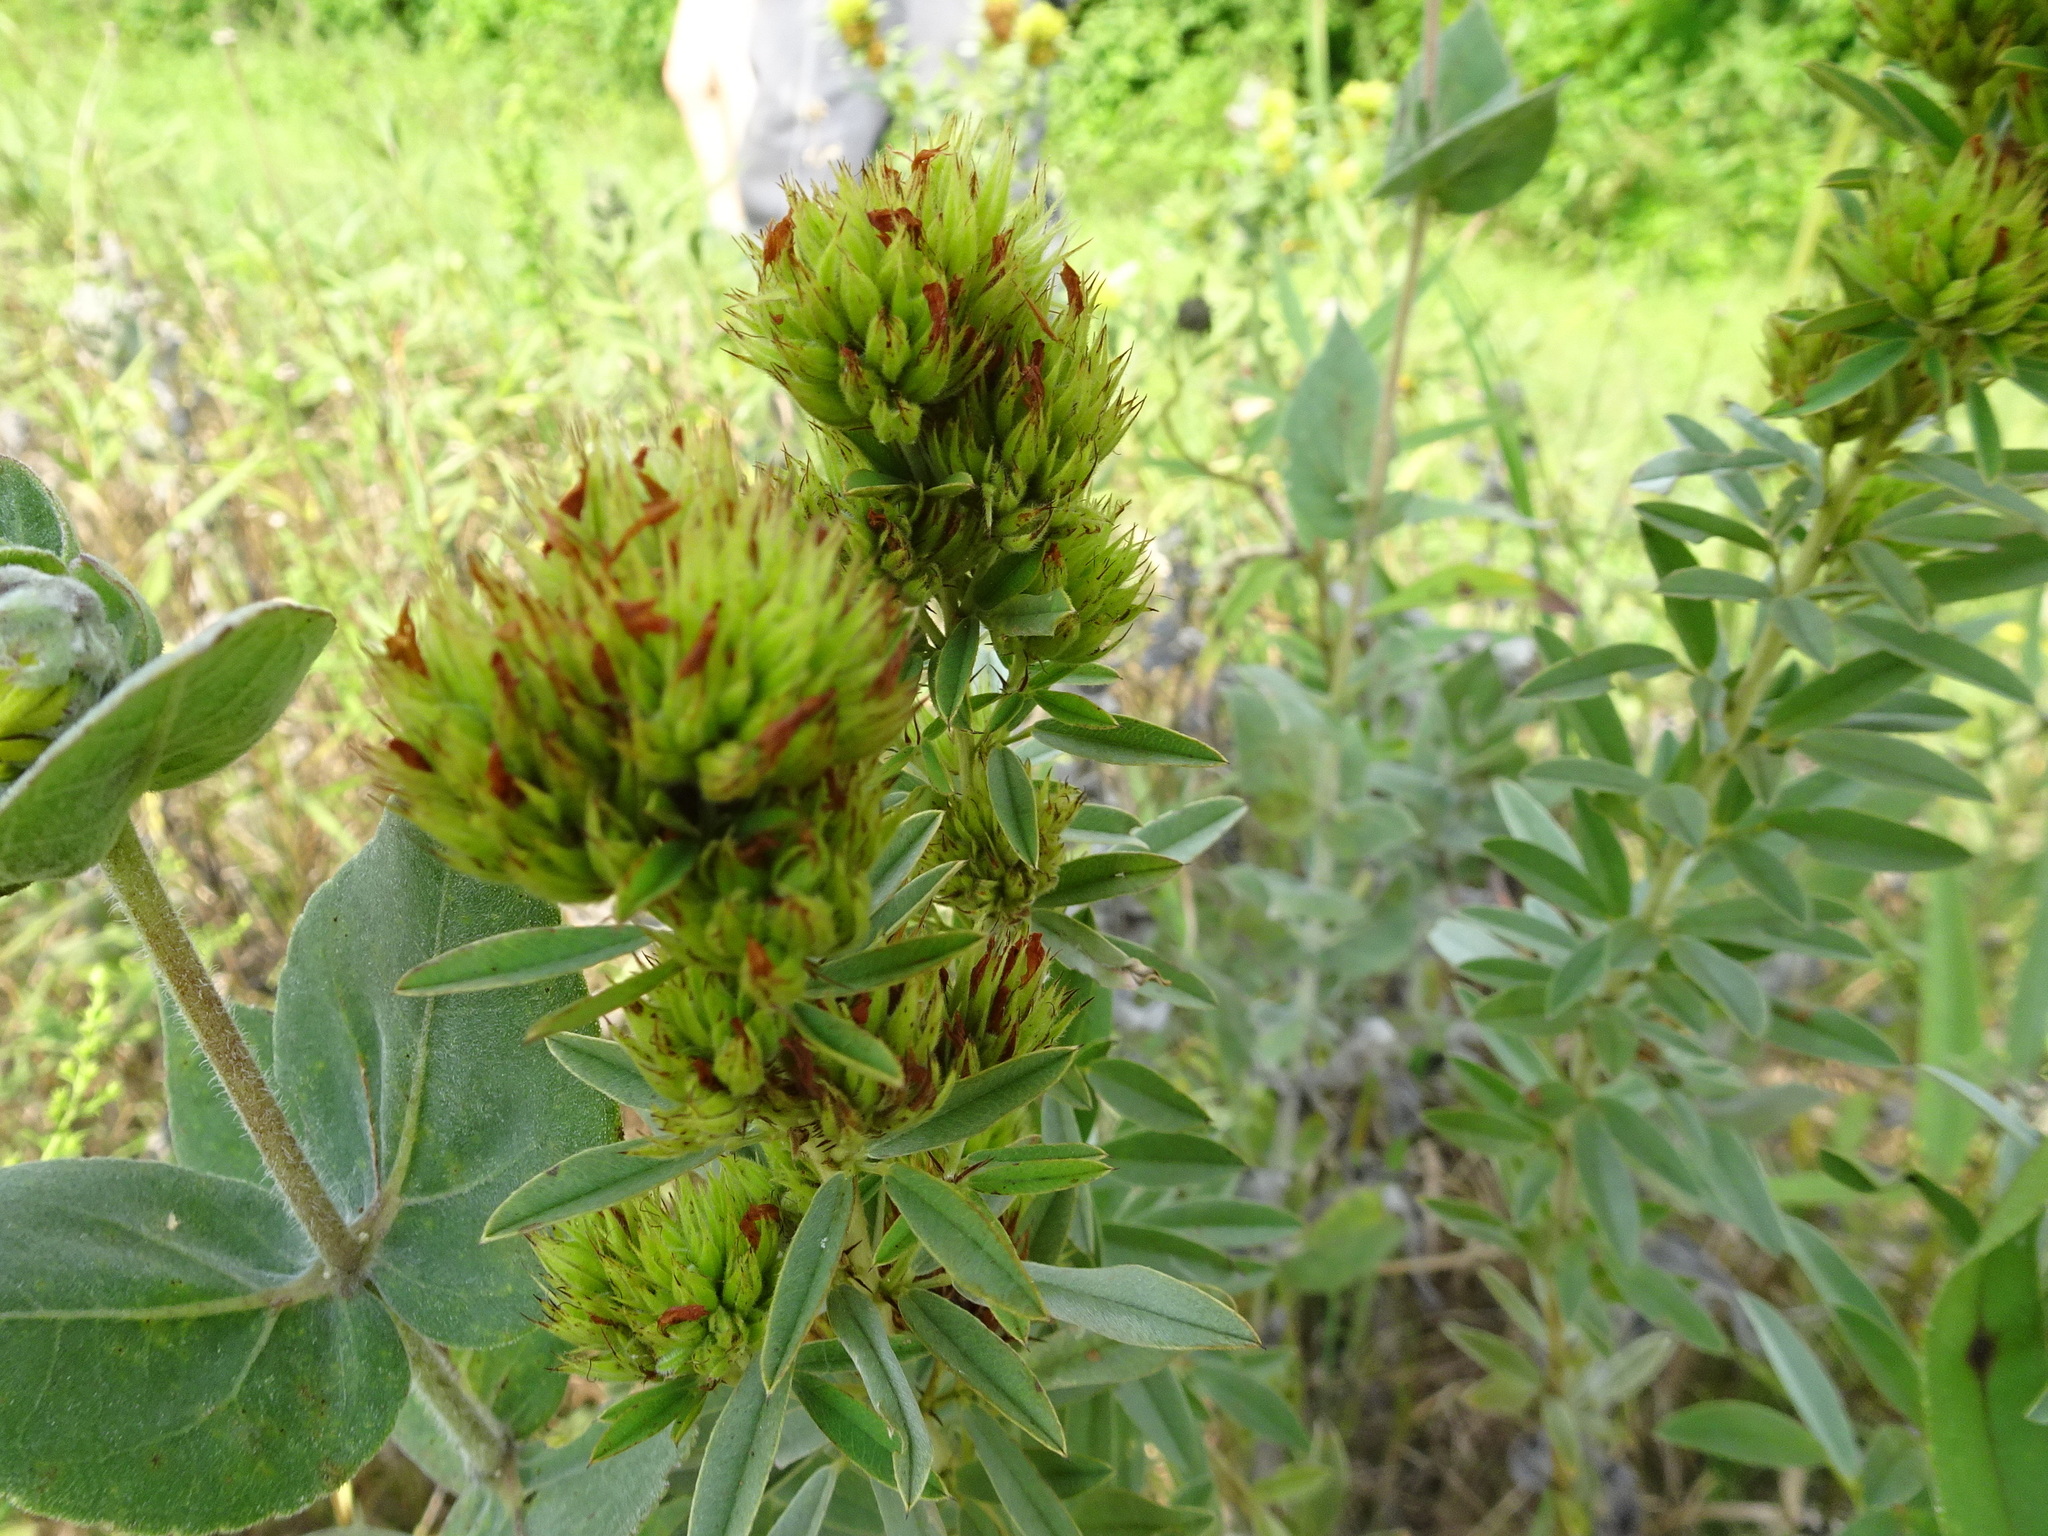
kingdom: Plantae
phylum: Tracheophyta
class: Magnoliopsida
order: Fabales
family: Fabaceae
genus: Lespedeza
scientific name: Lespedeza capitata
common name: Dusty clover
